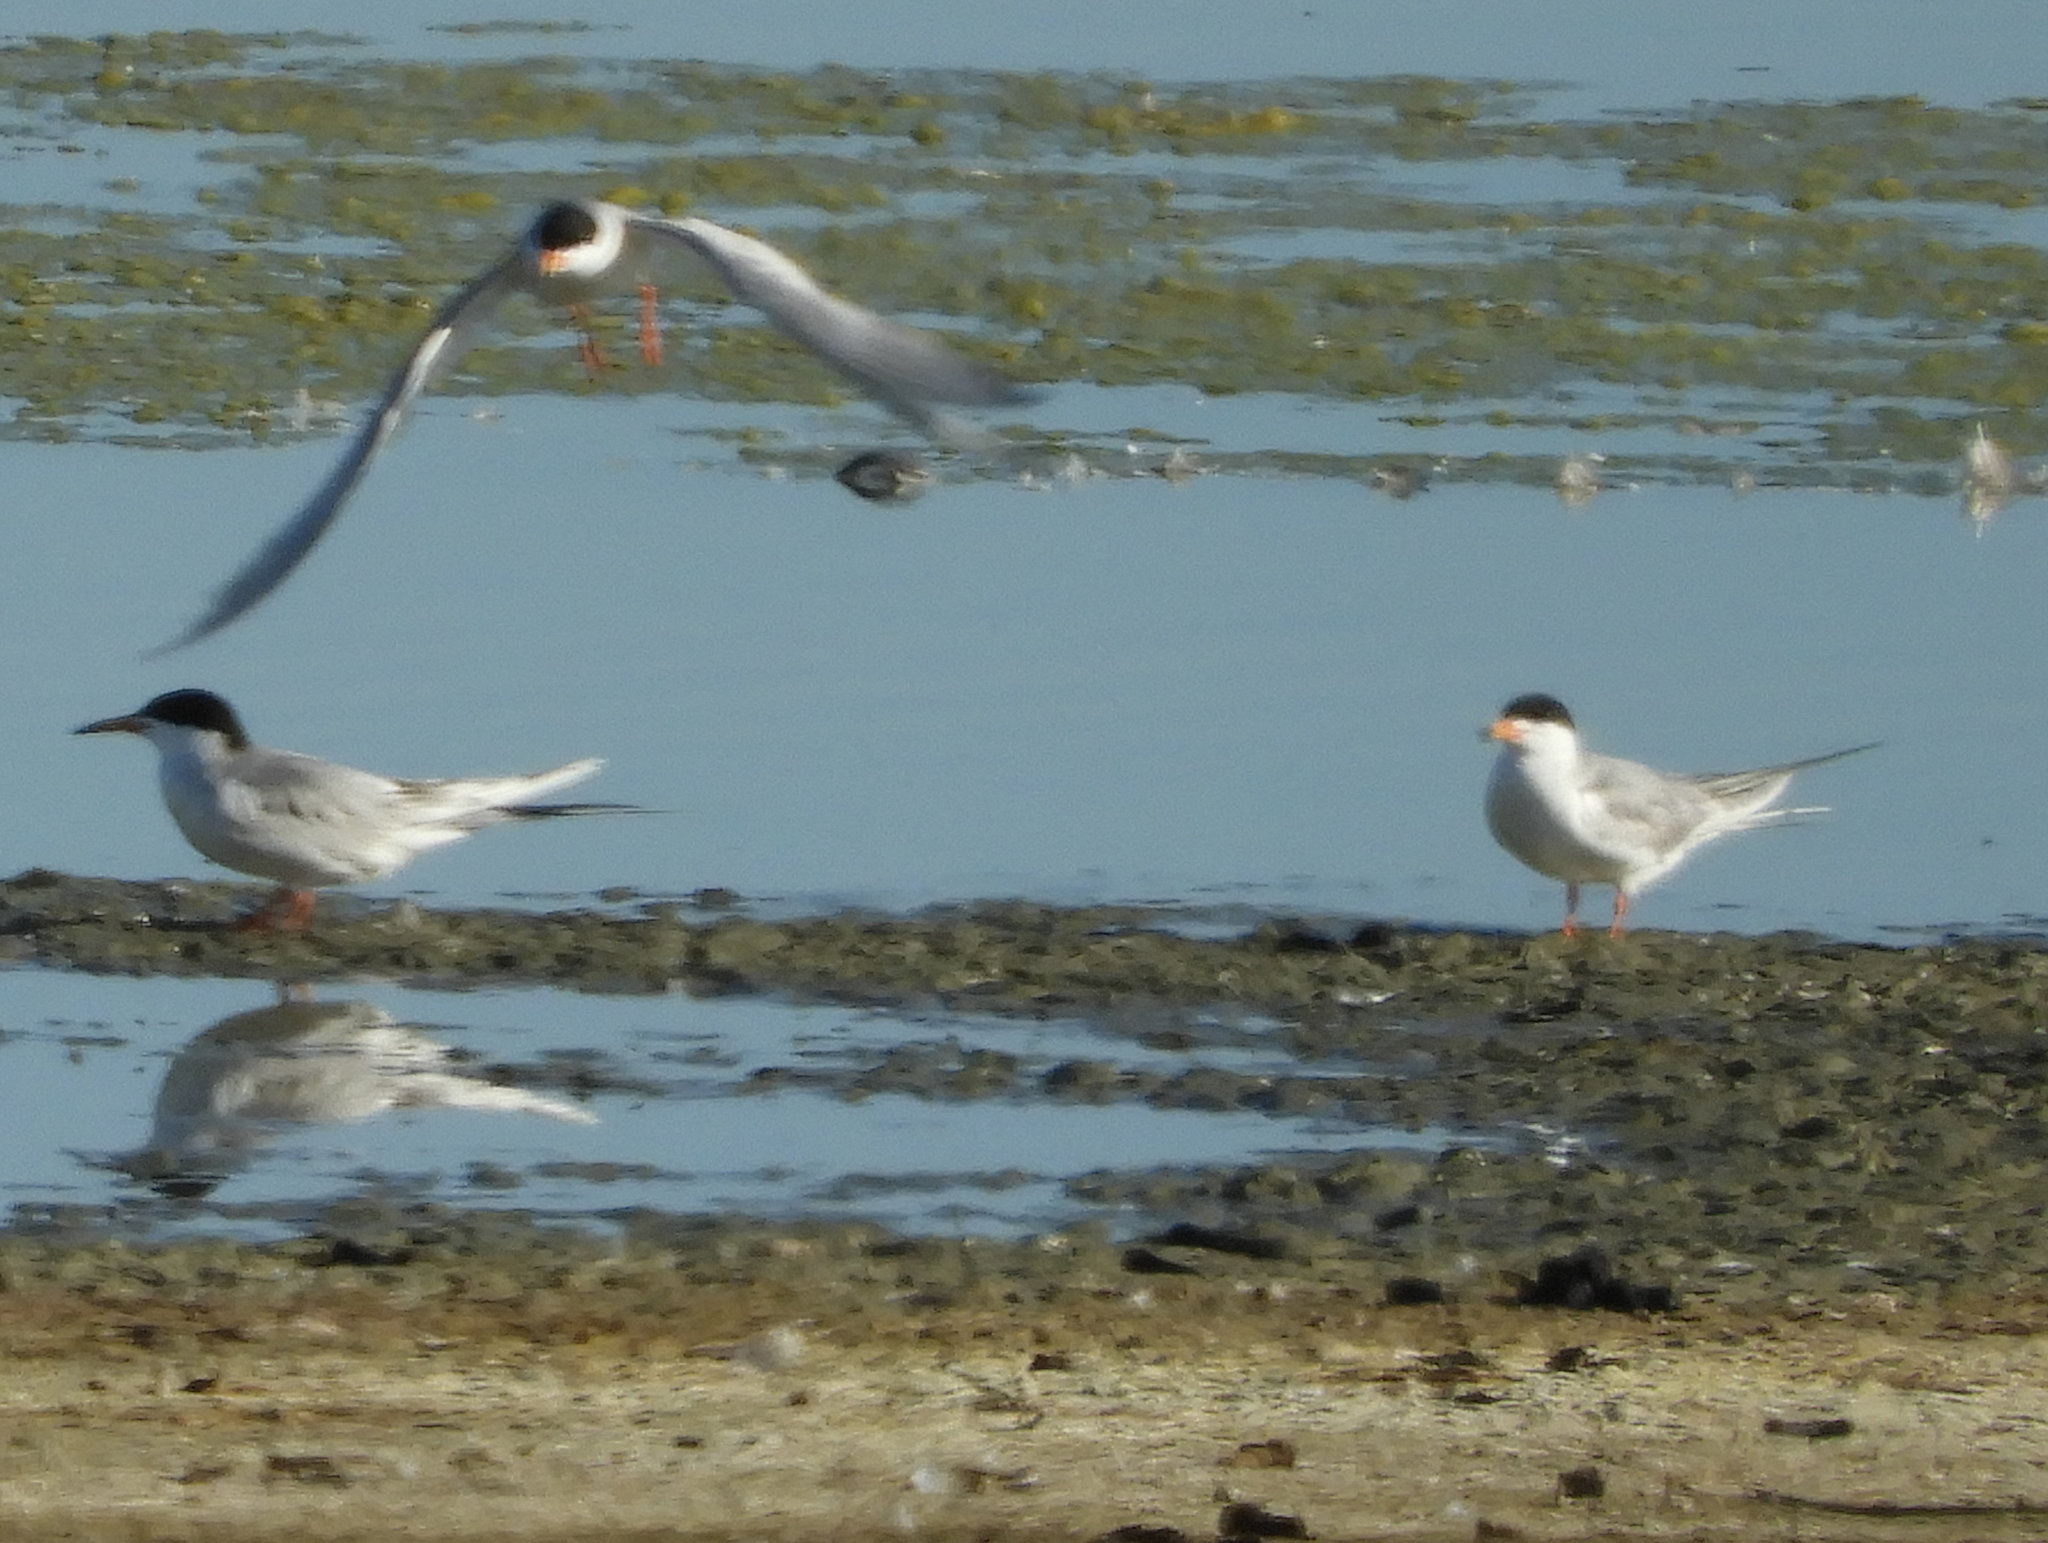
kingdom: Animalia
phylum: Chordata
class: Aves
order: Charadriiformes
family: Laridae
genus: Sterna
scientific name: Sterna forsteri
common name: Forster's tern
